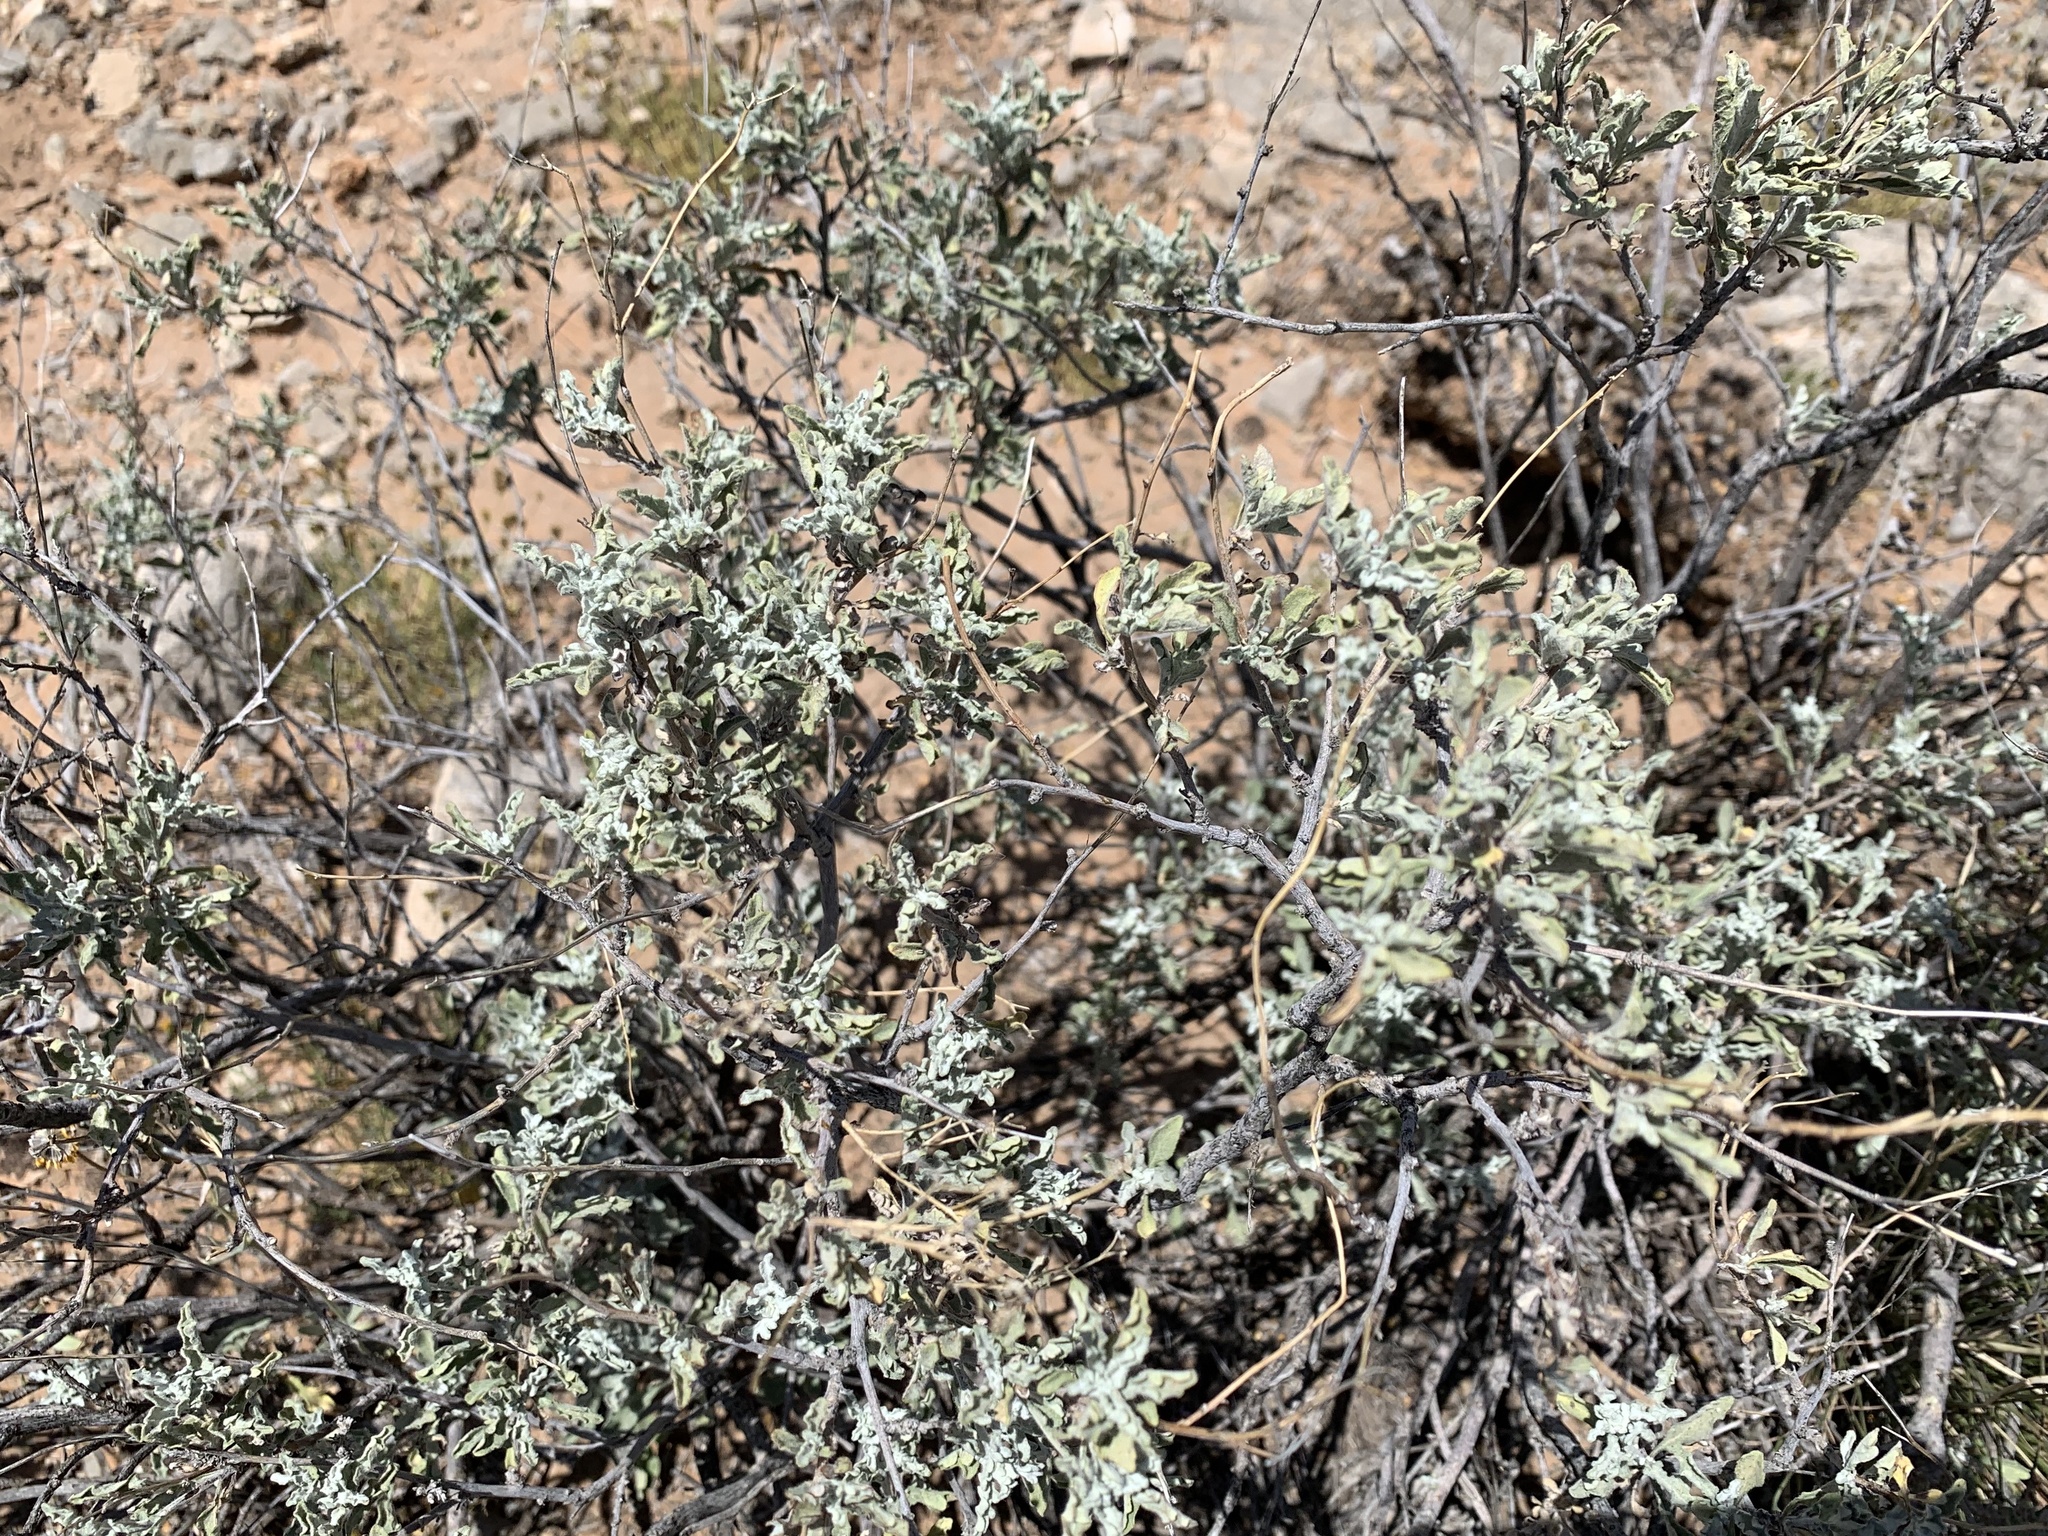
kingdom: Plantae
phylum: Tracheophyta
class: Magnoliopsida
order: Asterales
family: Asteraceae
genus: Parthenium
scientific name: Parthenium incanum
